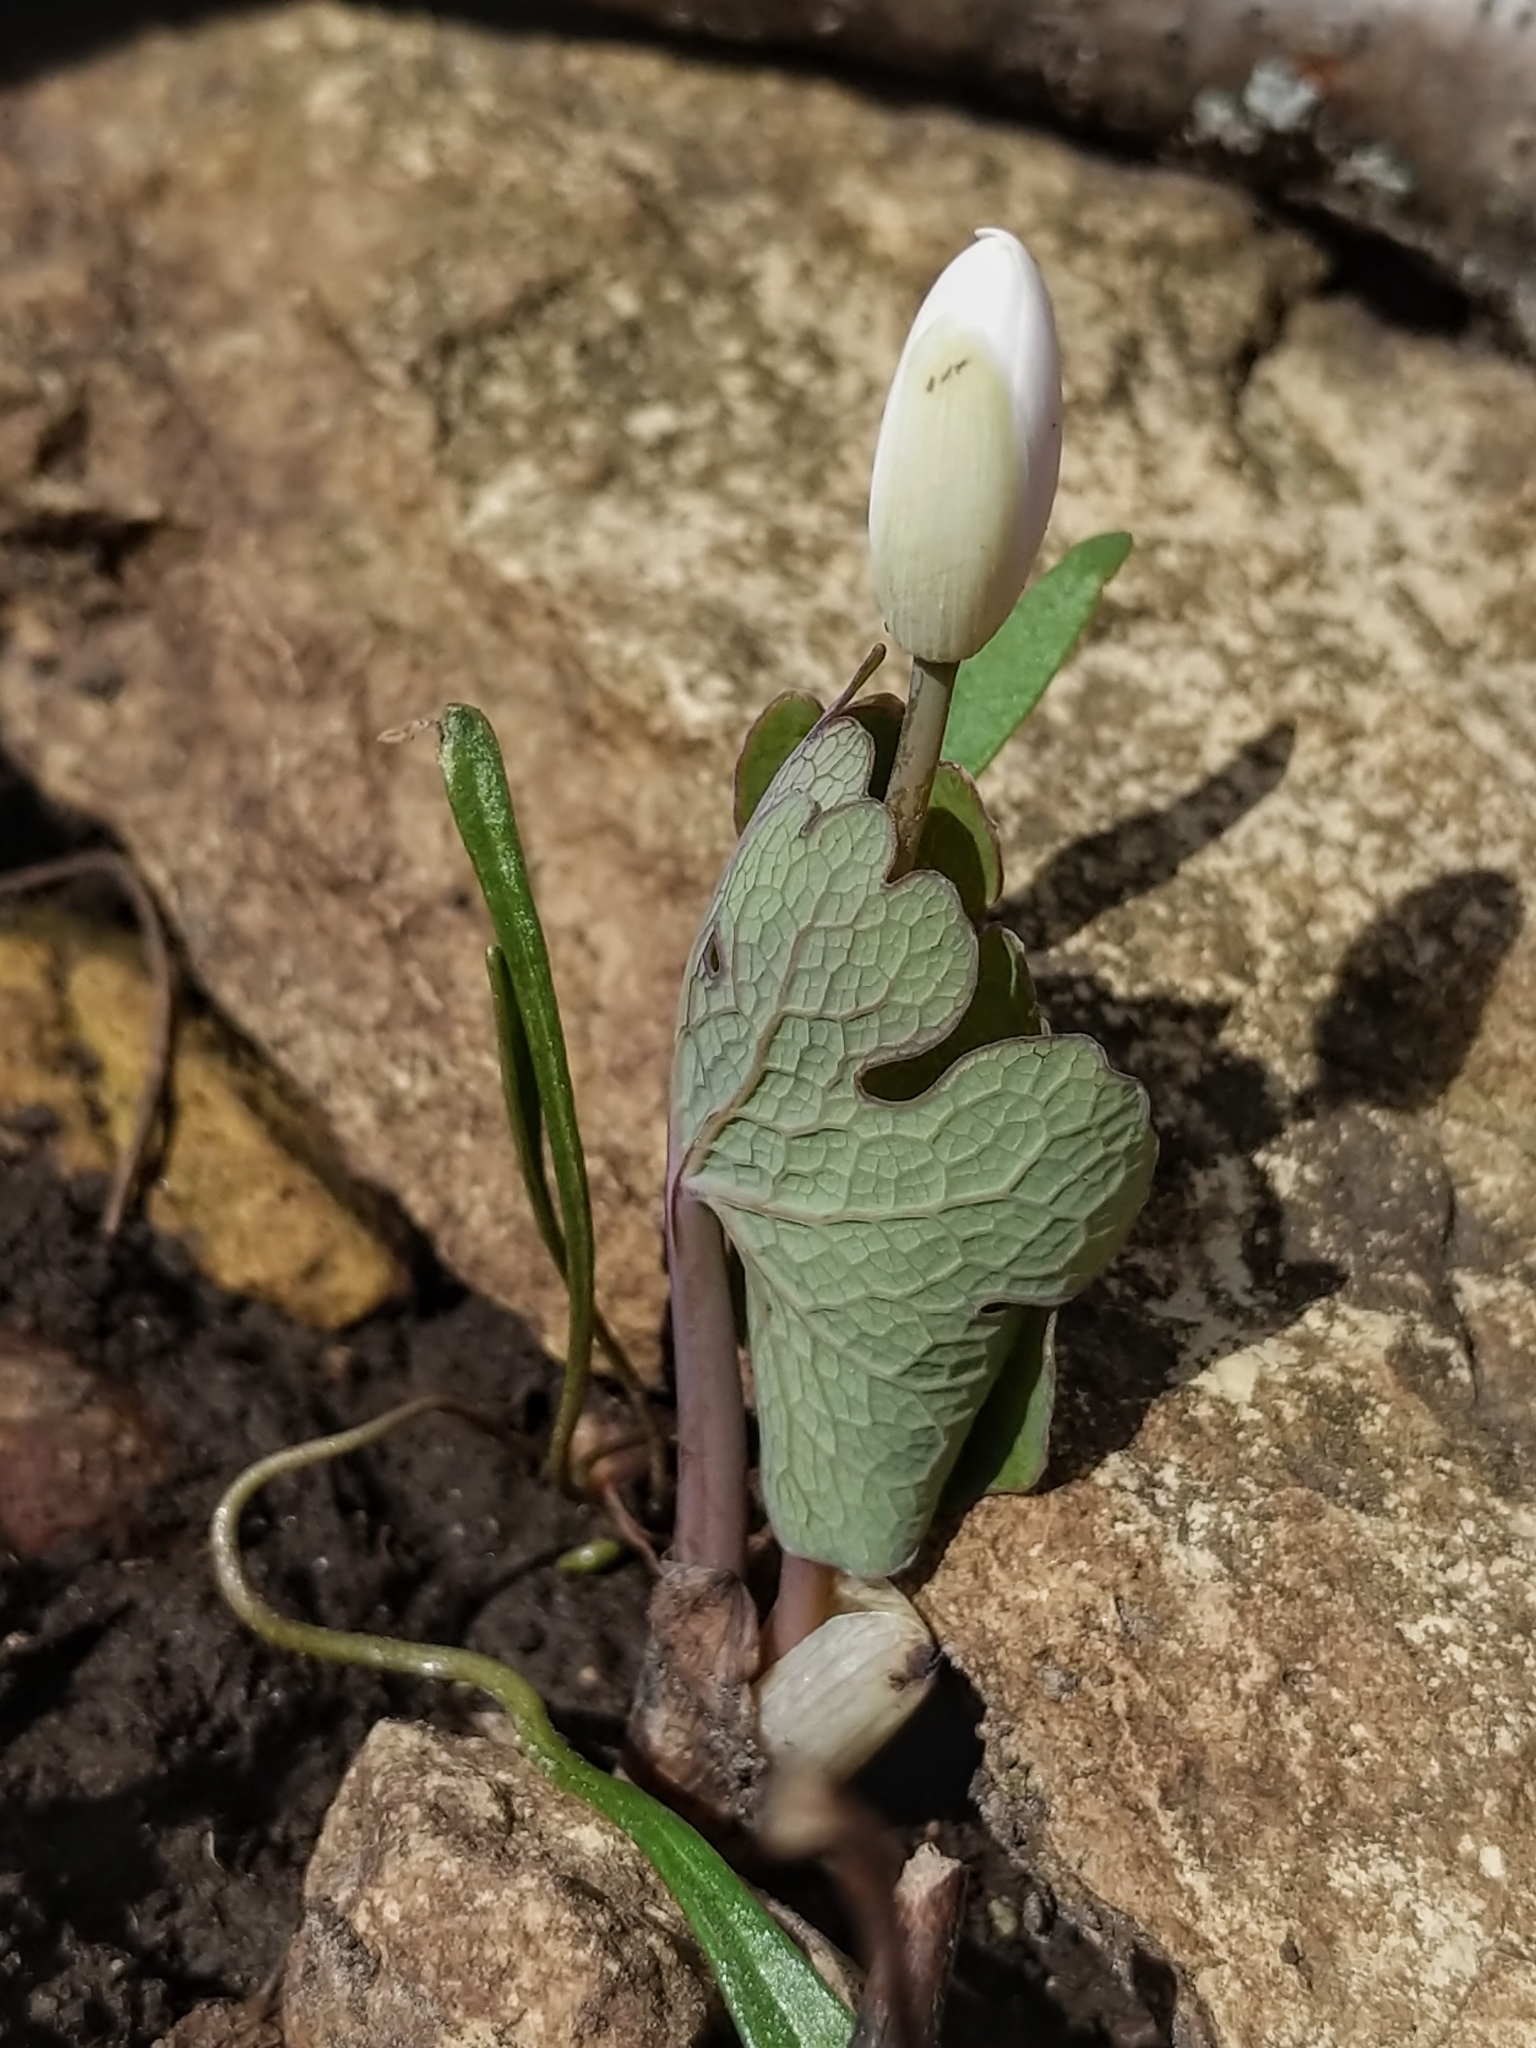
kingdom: Plantae
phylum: Tracheophyta
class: Magnoliopsida
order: Ranunculales
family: Papaveraceae
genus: Sanguinaria
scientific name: Sanguinaria canadensis
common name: Bloodroot
